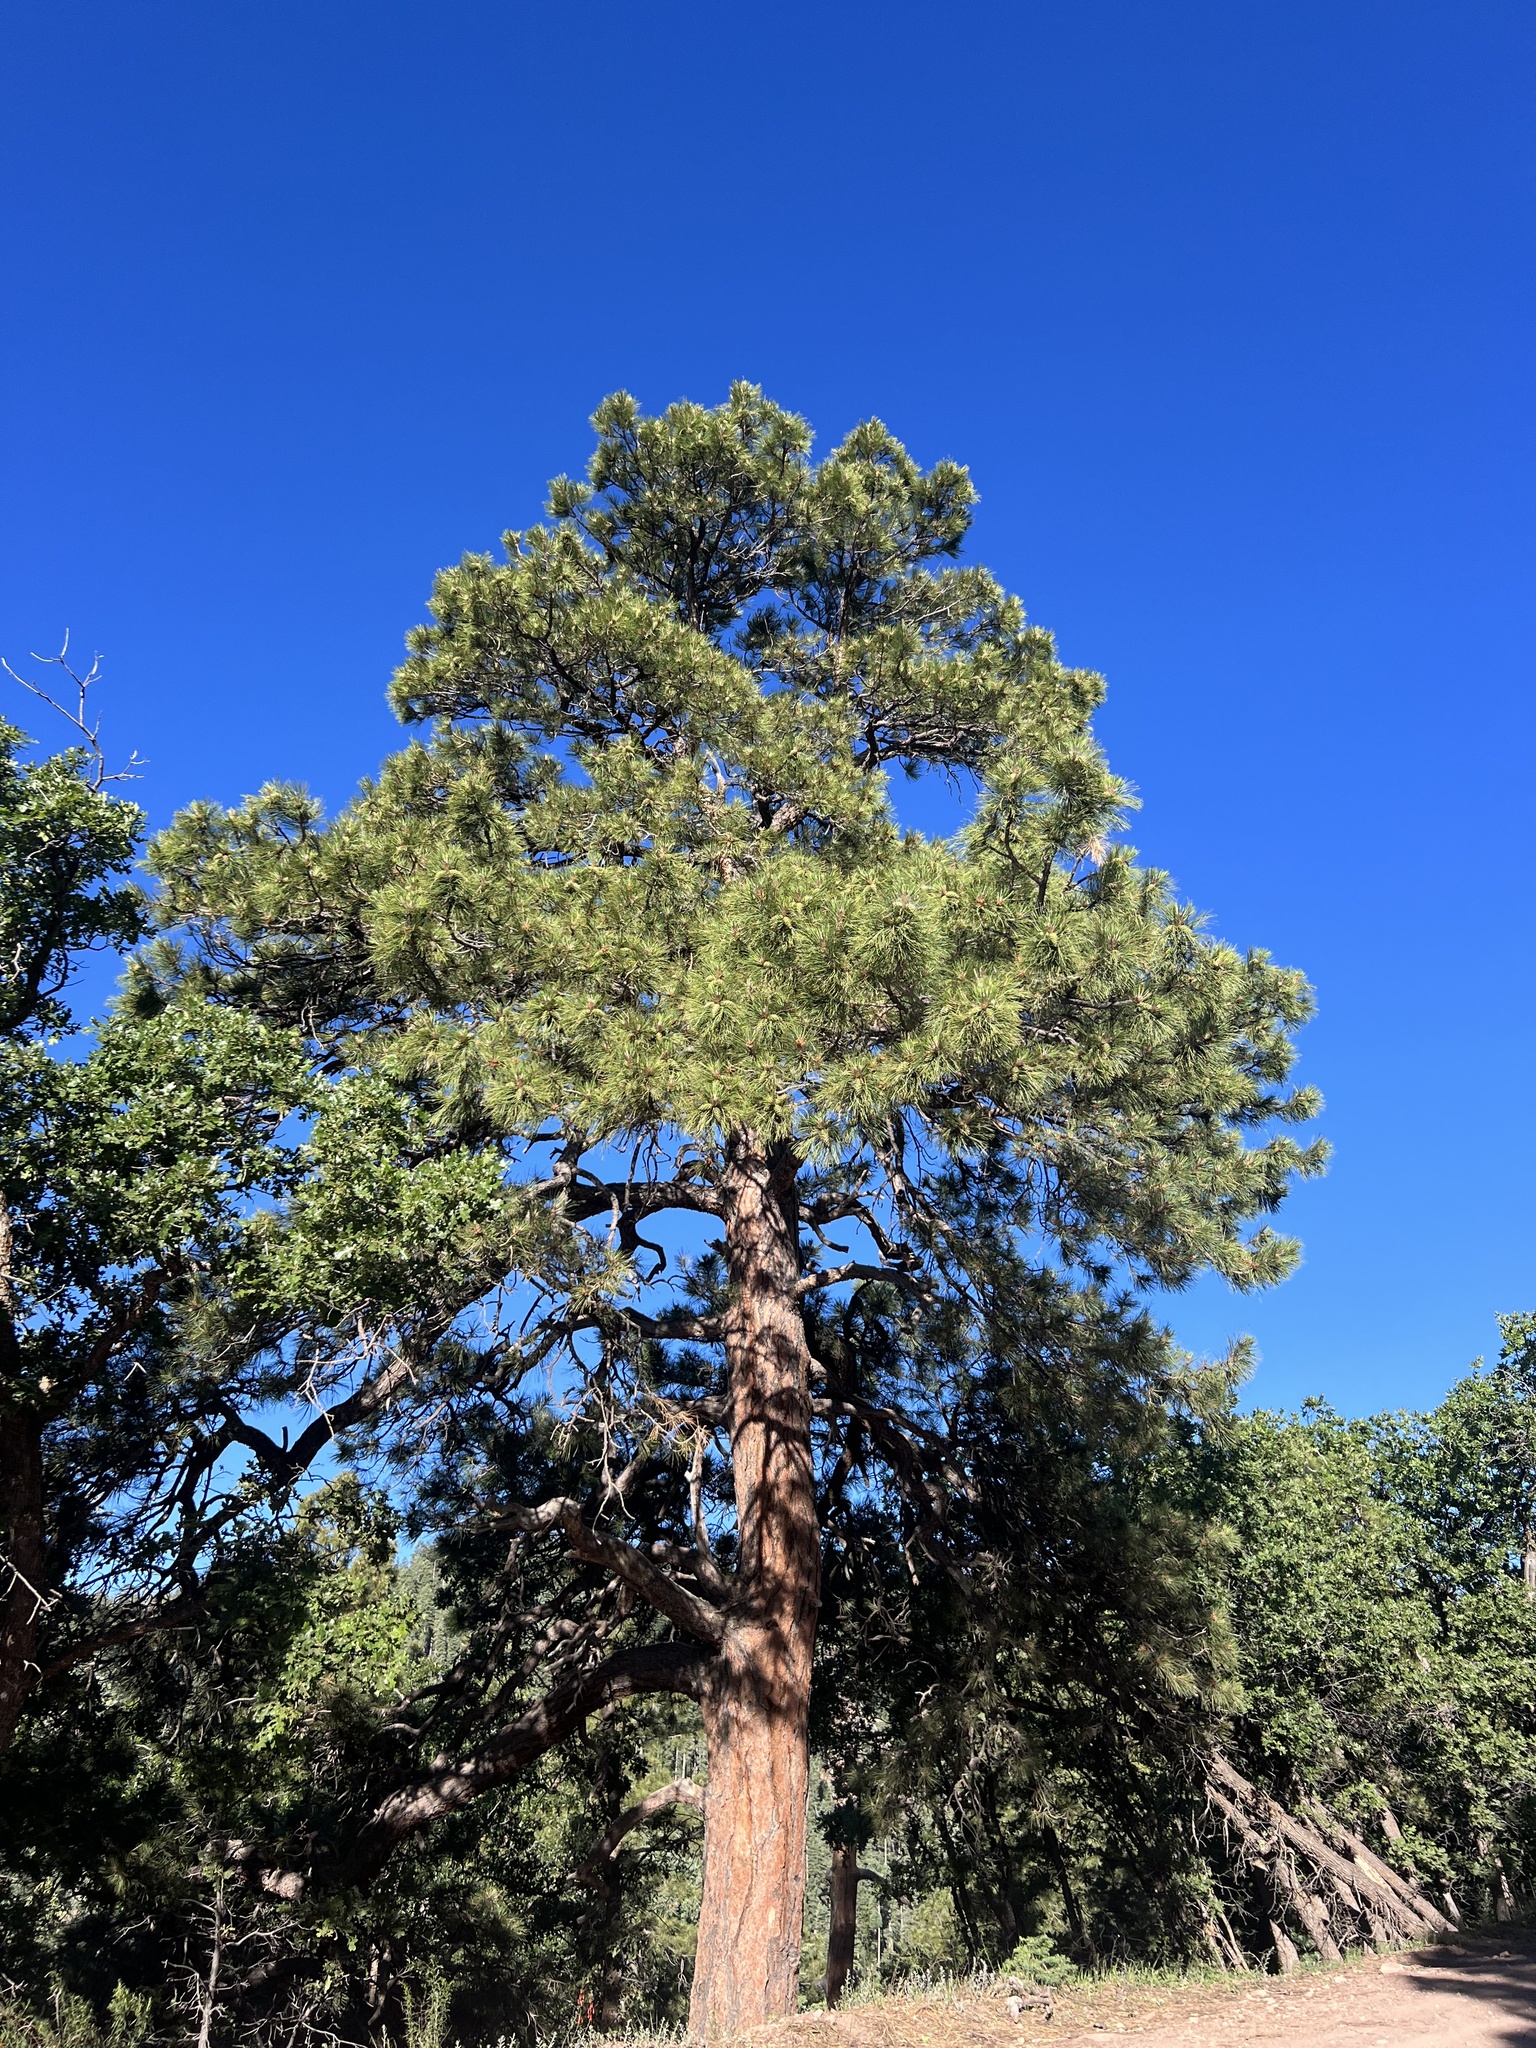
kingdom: Plantae
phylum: Tracheophyta
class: Pinopsida
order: Pinales
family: Pinaceae
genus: Pinus
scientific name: Pinus ponderosa
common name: Western yellow-pine
